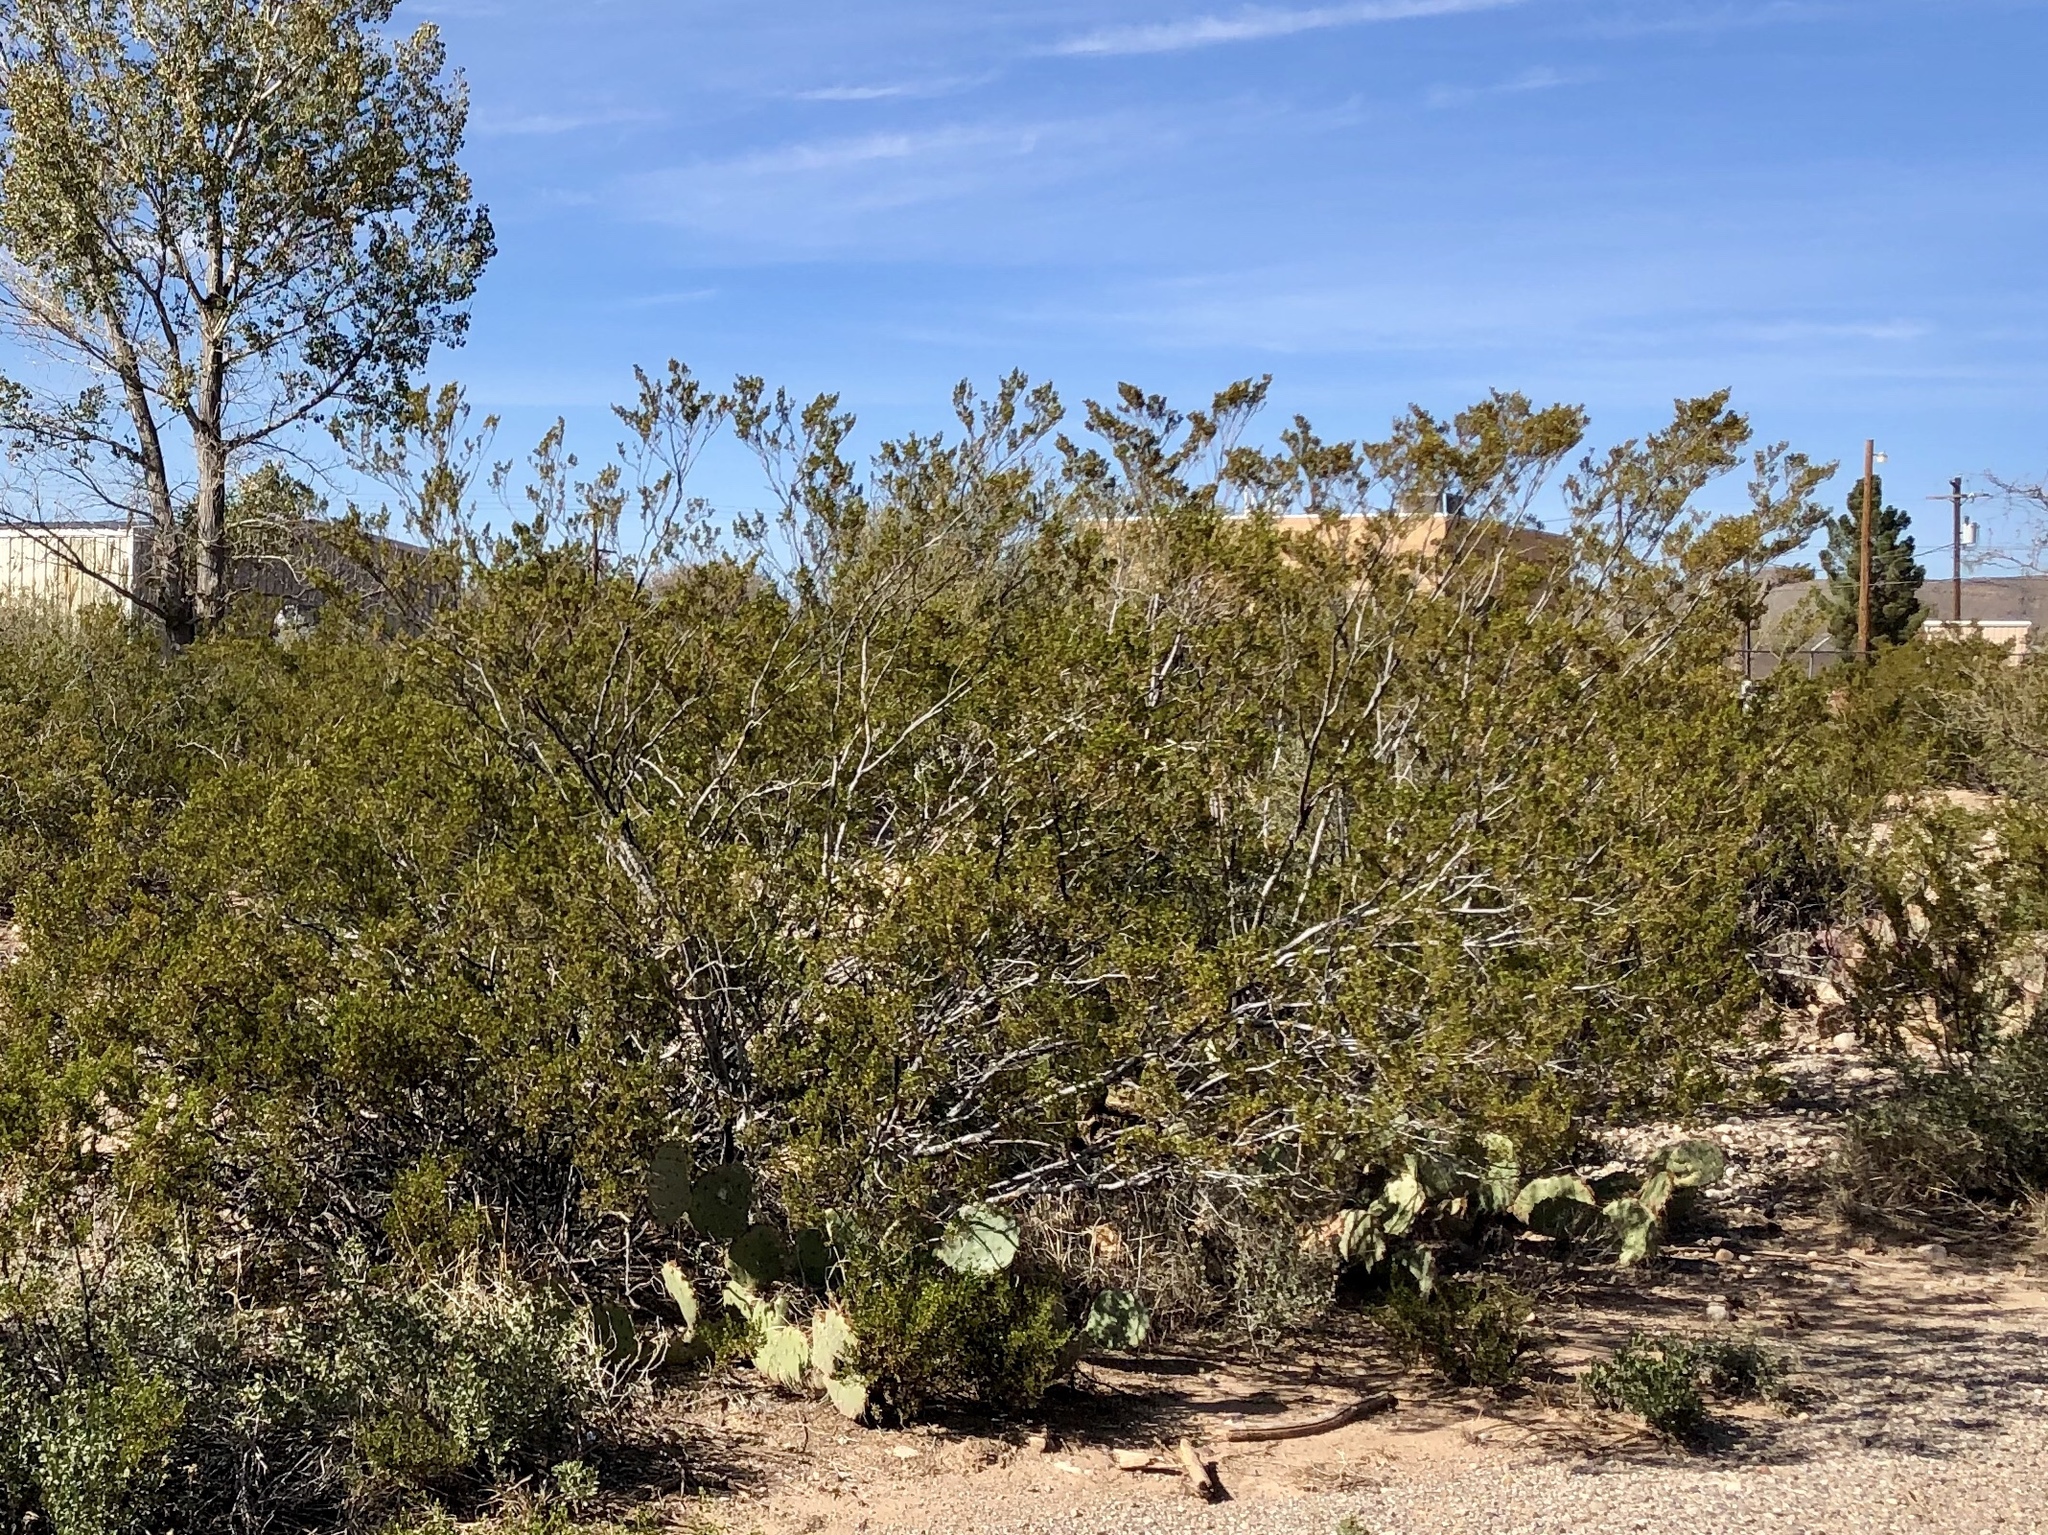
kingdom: Plantae
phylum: Tracheophyta
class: Magnoliopsida
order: Zygophyllales
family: Zygophyllaceae
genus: Larrea
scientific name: Larrea tridentata
